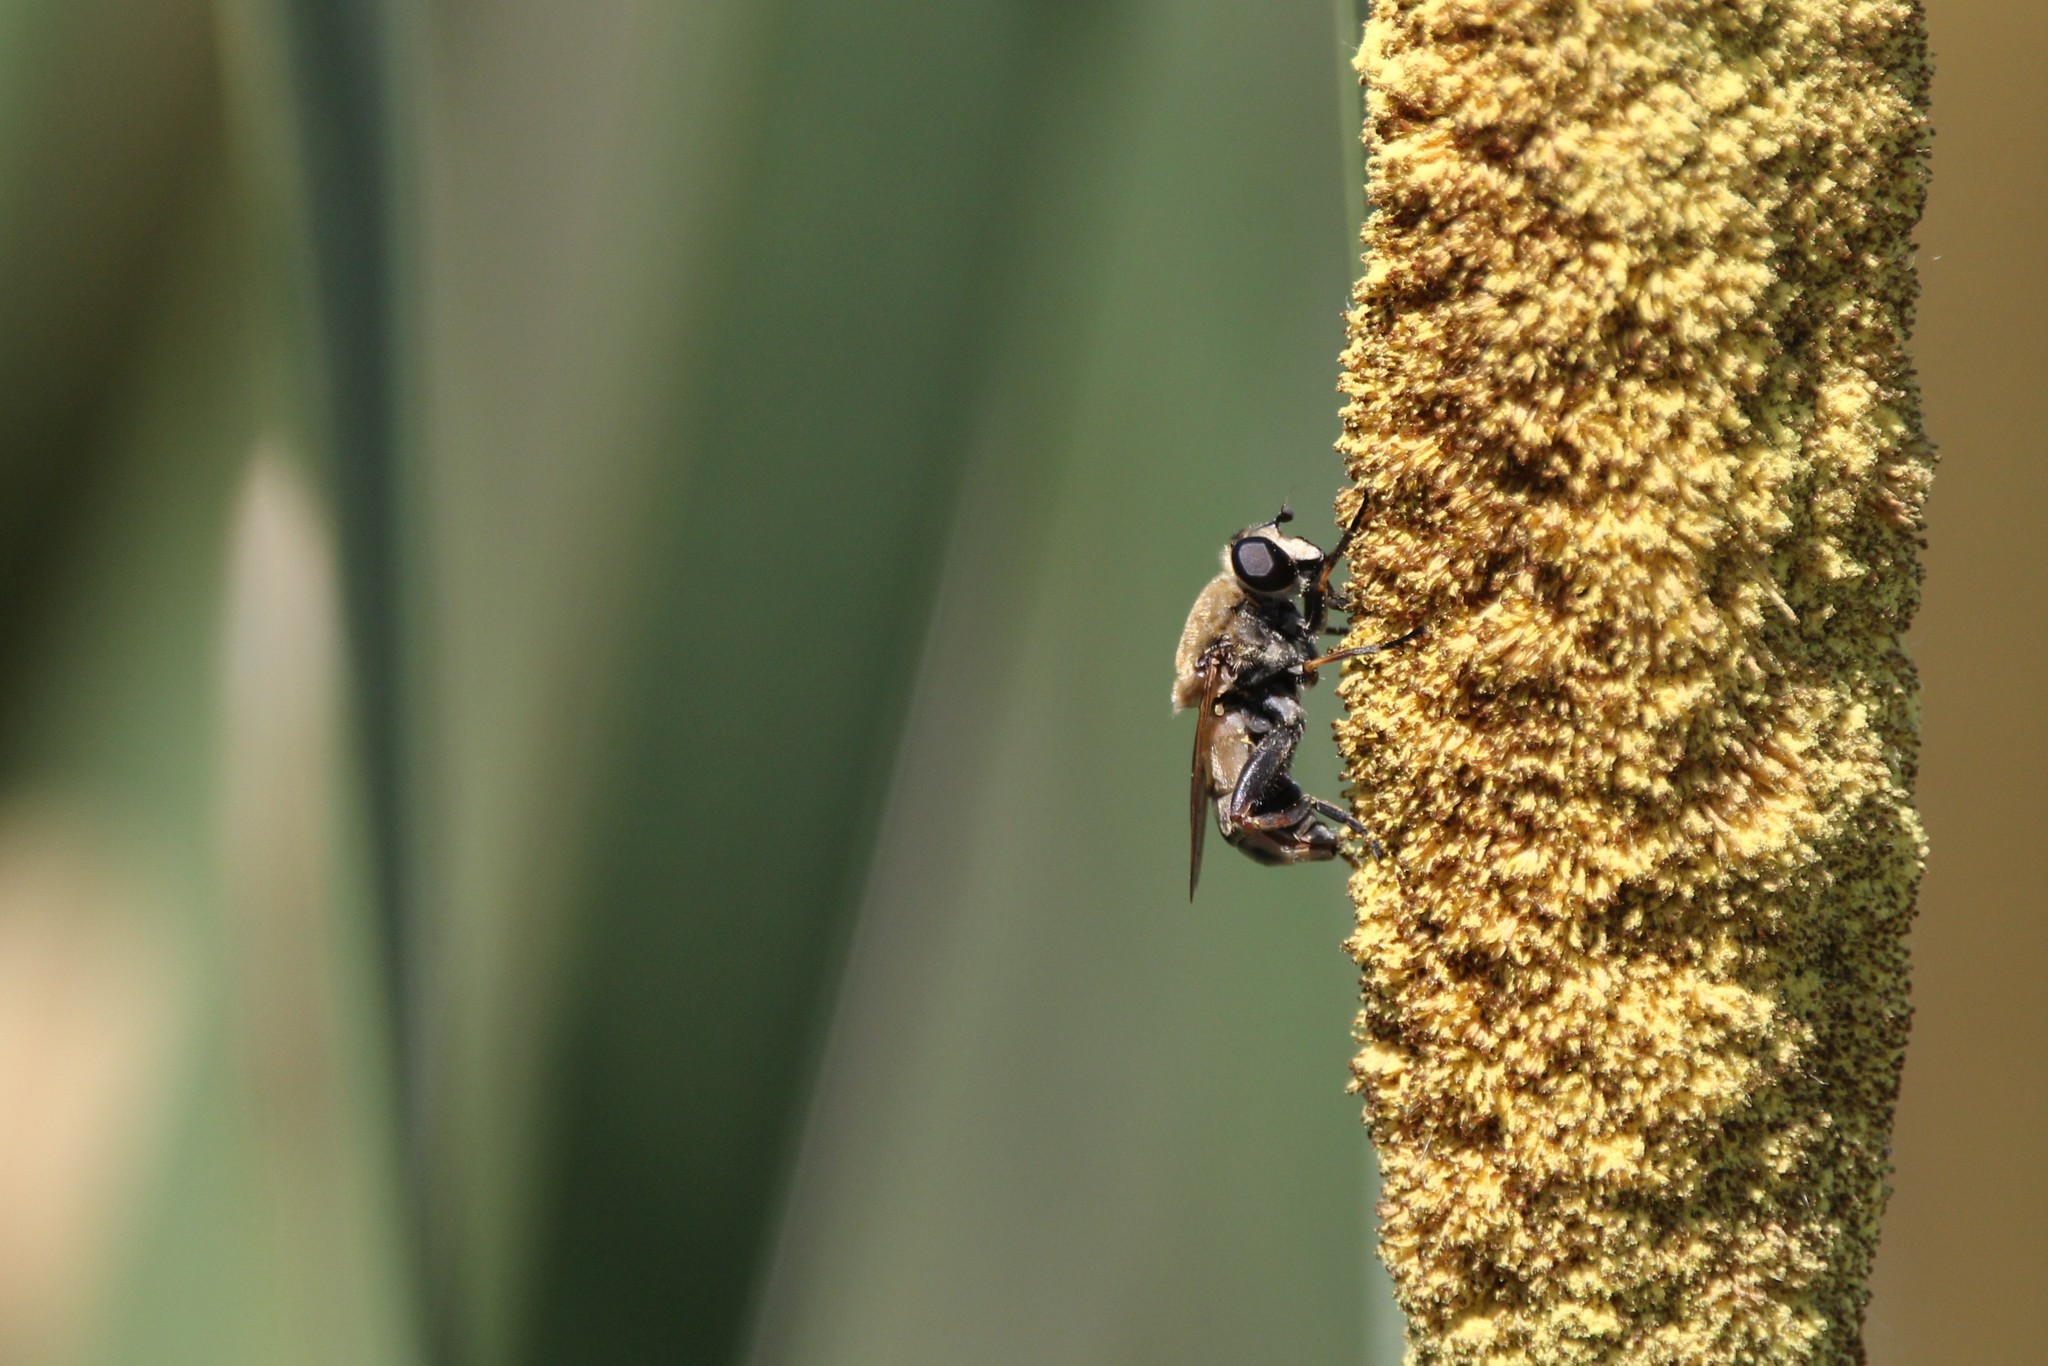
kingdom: Animalia
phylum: Arthropoda
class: Insecta
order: Diptera
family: Syrphidae
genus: Polydontomyia
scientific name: Polydontomyia curvipes
